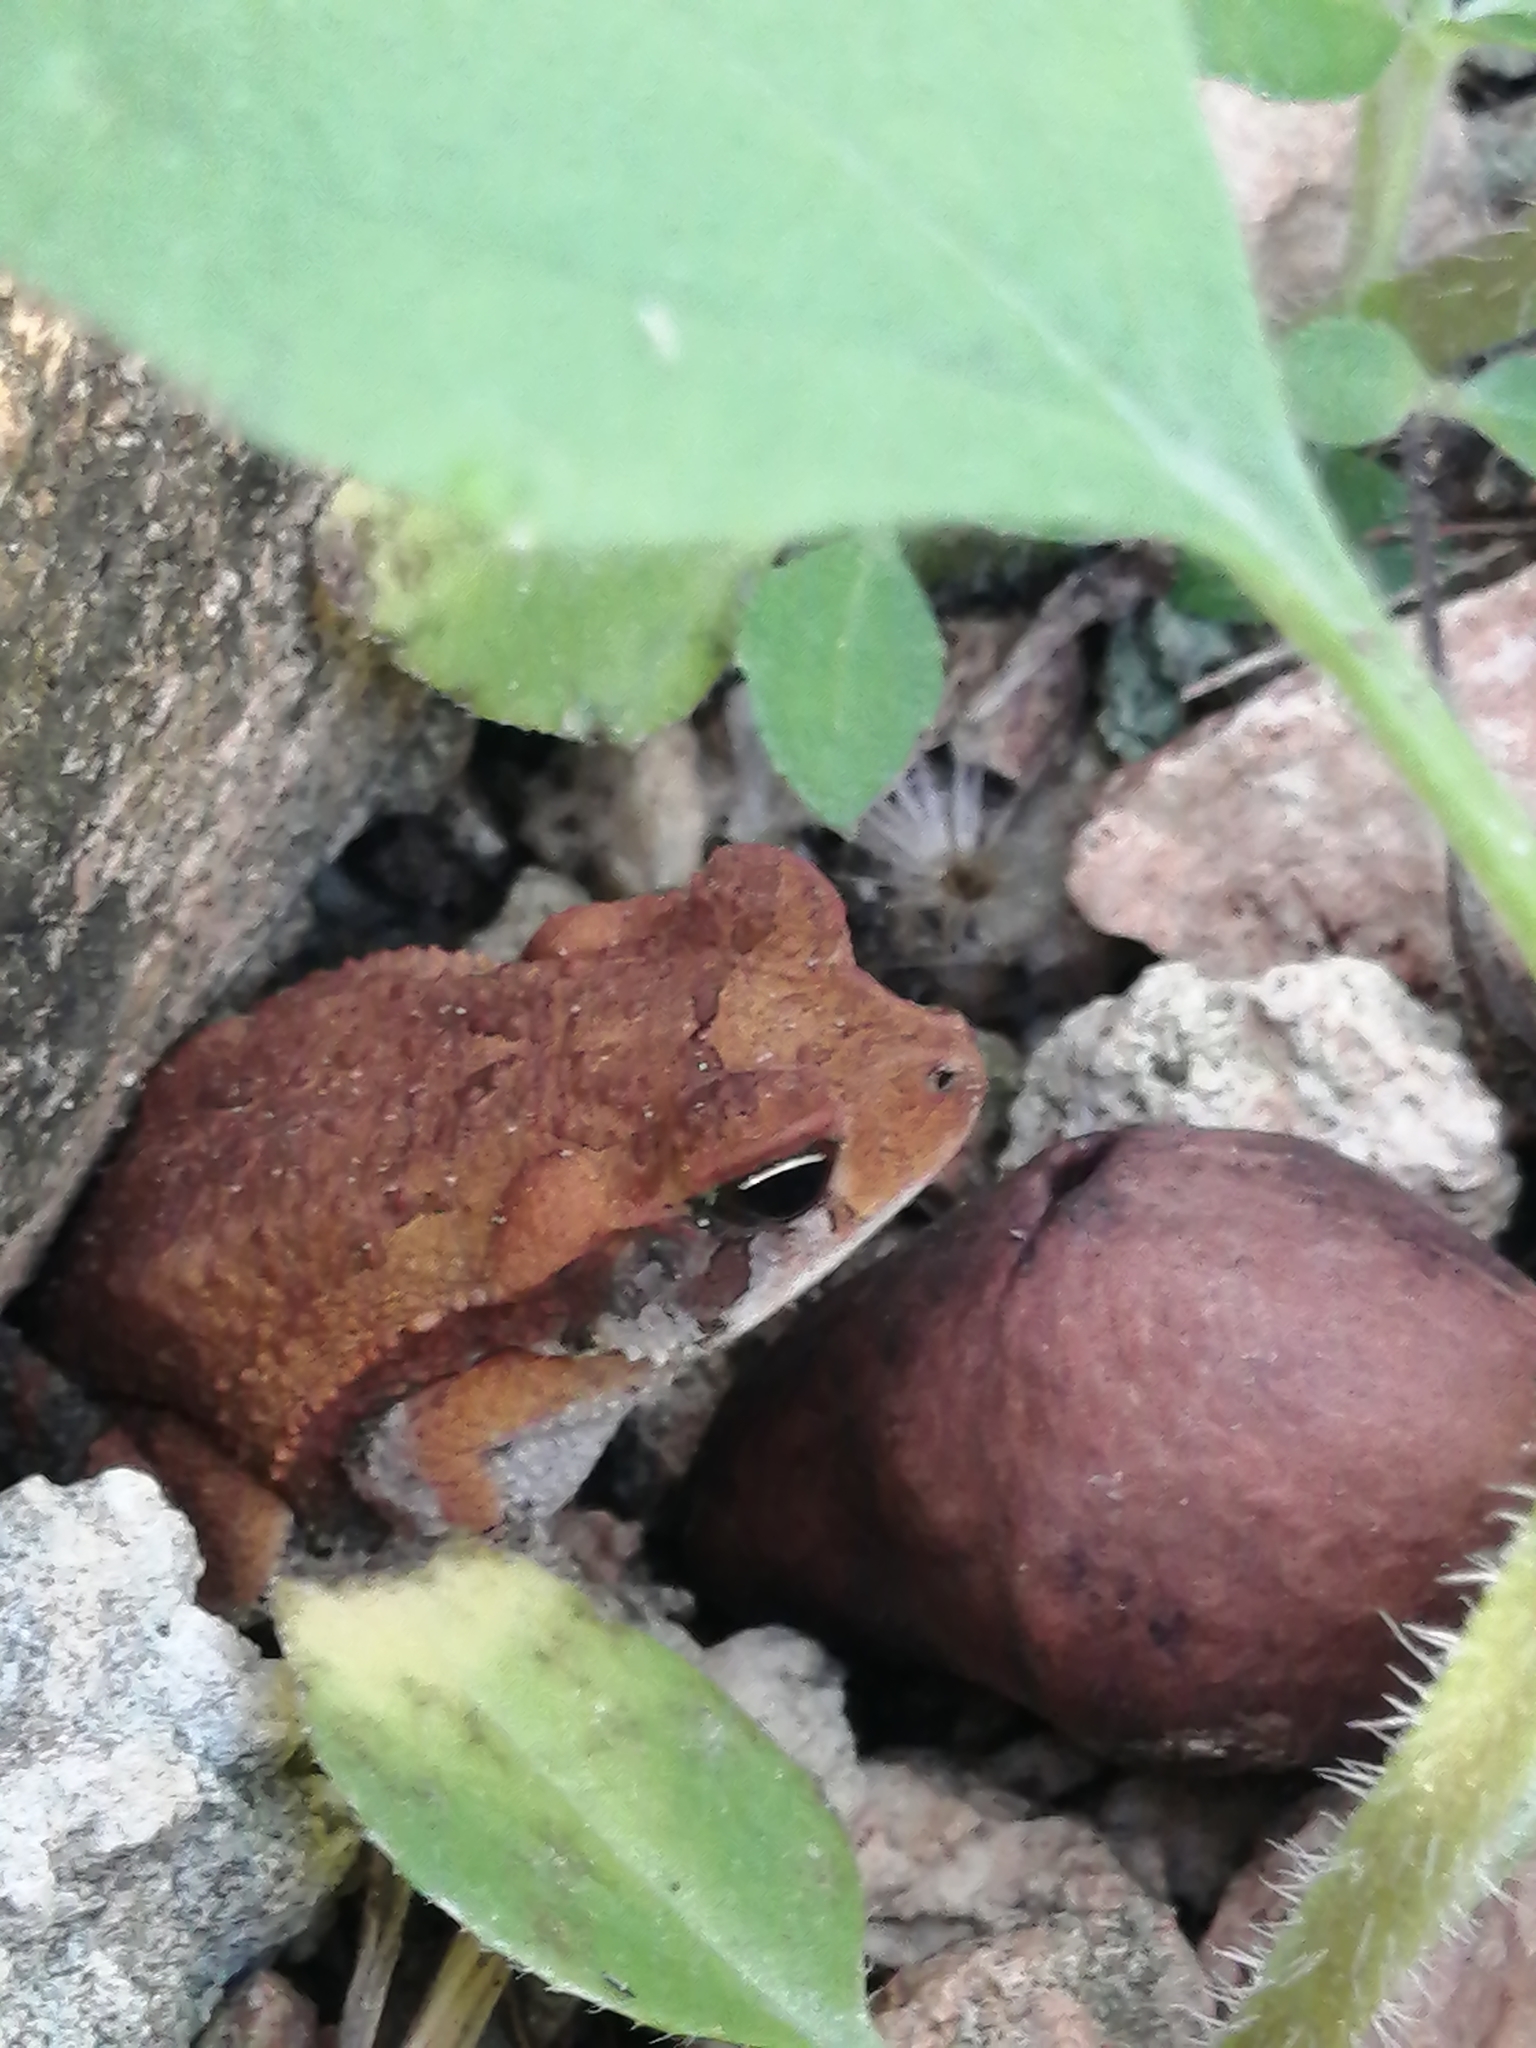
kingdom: Animalia
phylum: Chordata
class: Amphibia
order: Anura
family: Bufonidae
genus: Incilius
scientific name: Incilius valliceps
